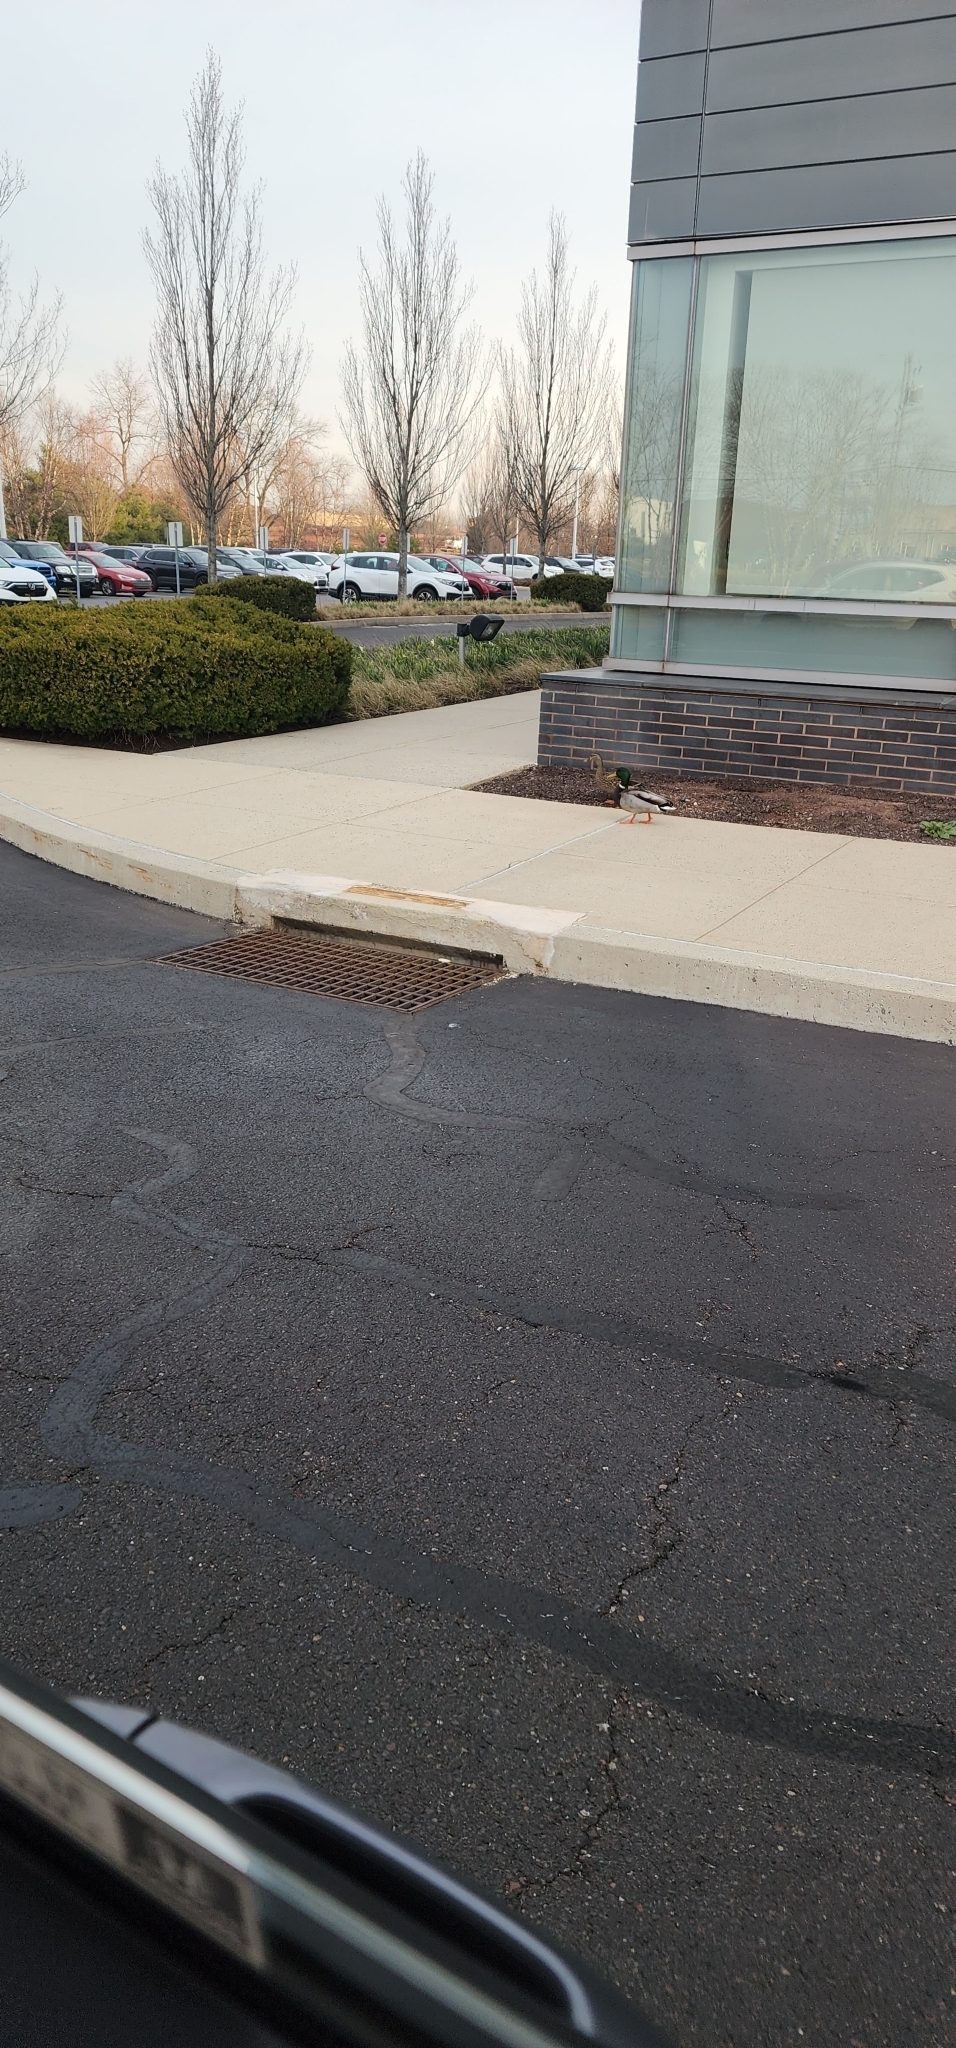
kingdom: Animalia
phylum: Chordata
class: Aves
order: Anseriformes
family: Anatidae
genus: Anas
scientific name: Anas platyrhynchos
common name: Mallard
